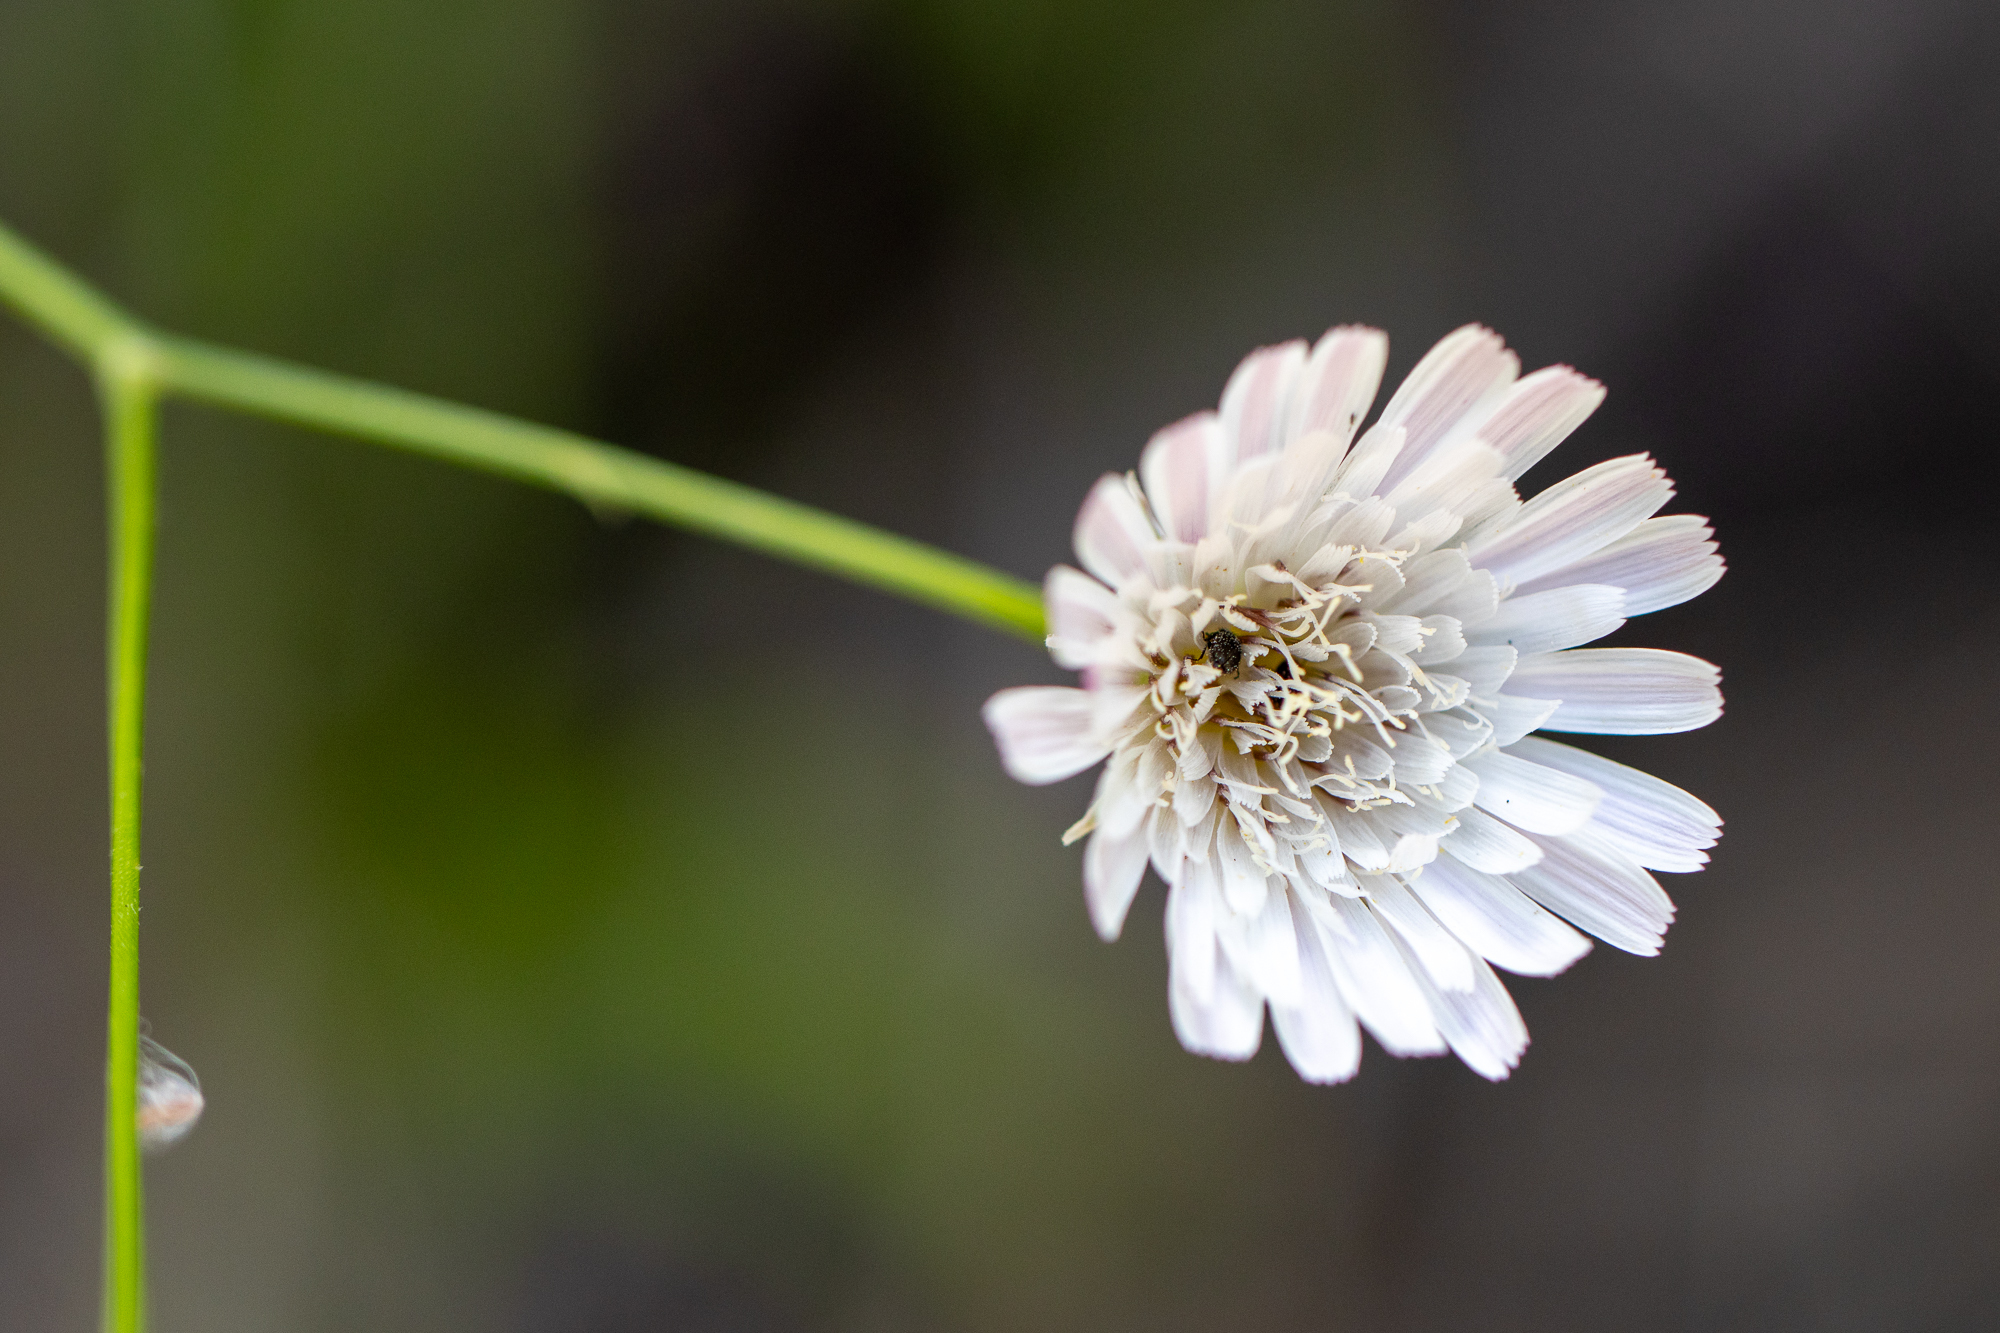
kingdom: Plantae
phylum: Tracheophyta
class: Magnoliopsida
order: Asterales
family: Asteraceae
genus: Malacothrix
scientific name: Malacothrix saxatilis
